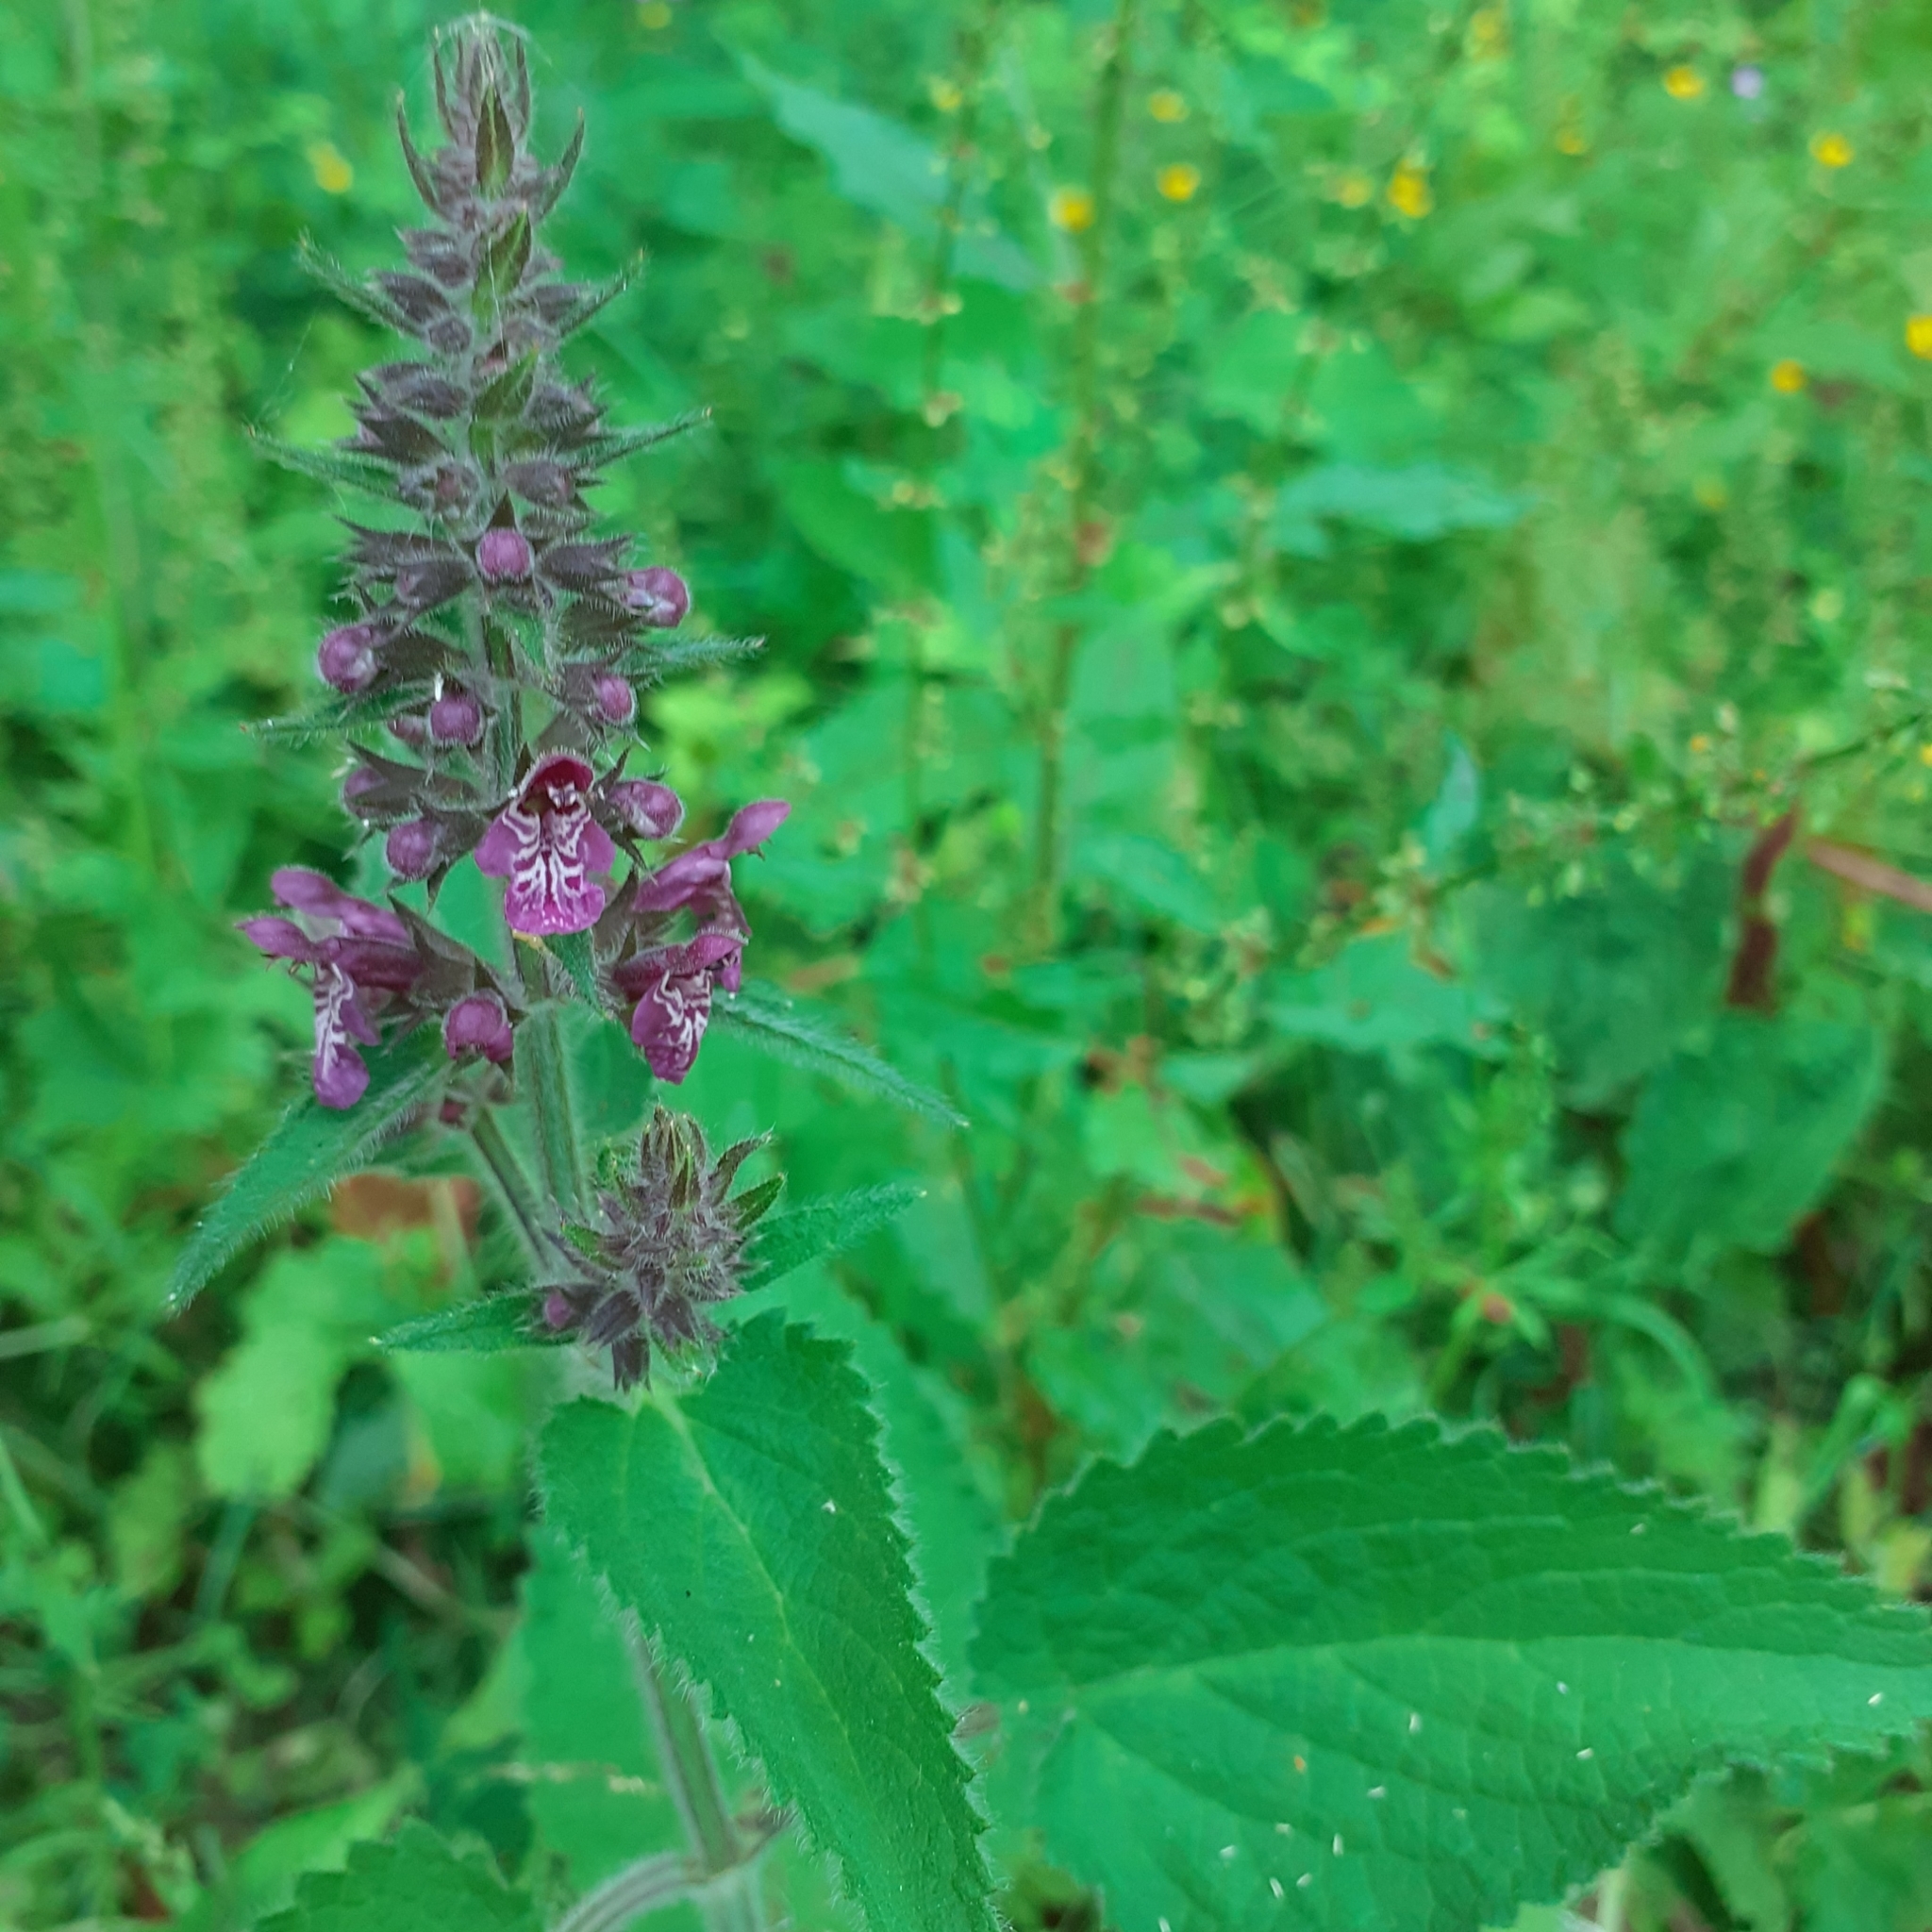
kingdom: Plantae
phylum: Tracheophyta
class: Magnoliopsida
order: Lamiales
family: Lamiaceae
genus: Stachys
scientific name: Stachys sylvatica
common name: Hedge woundwort
